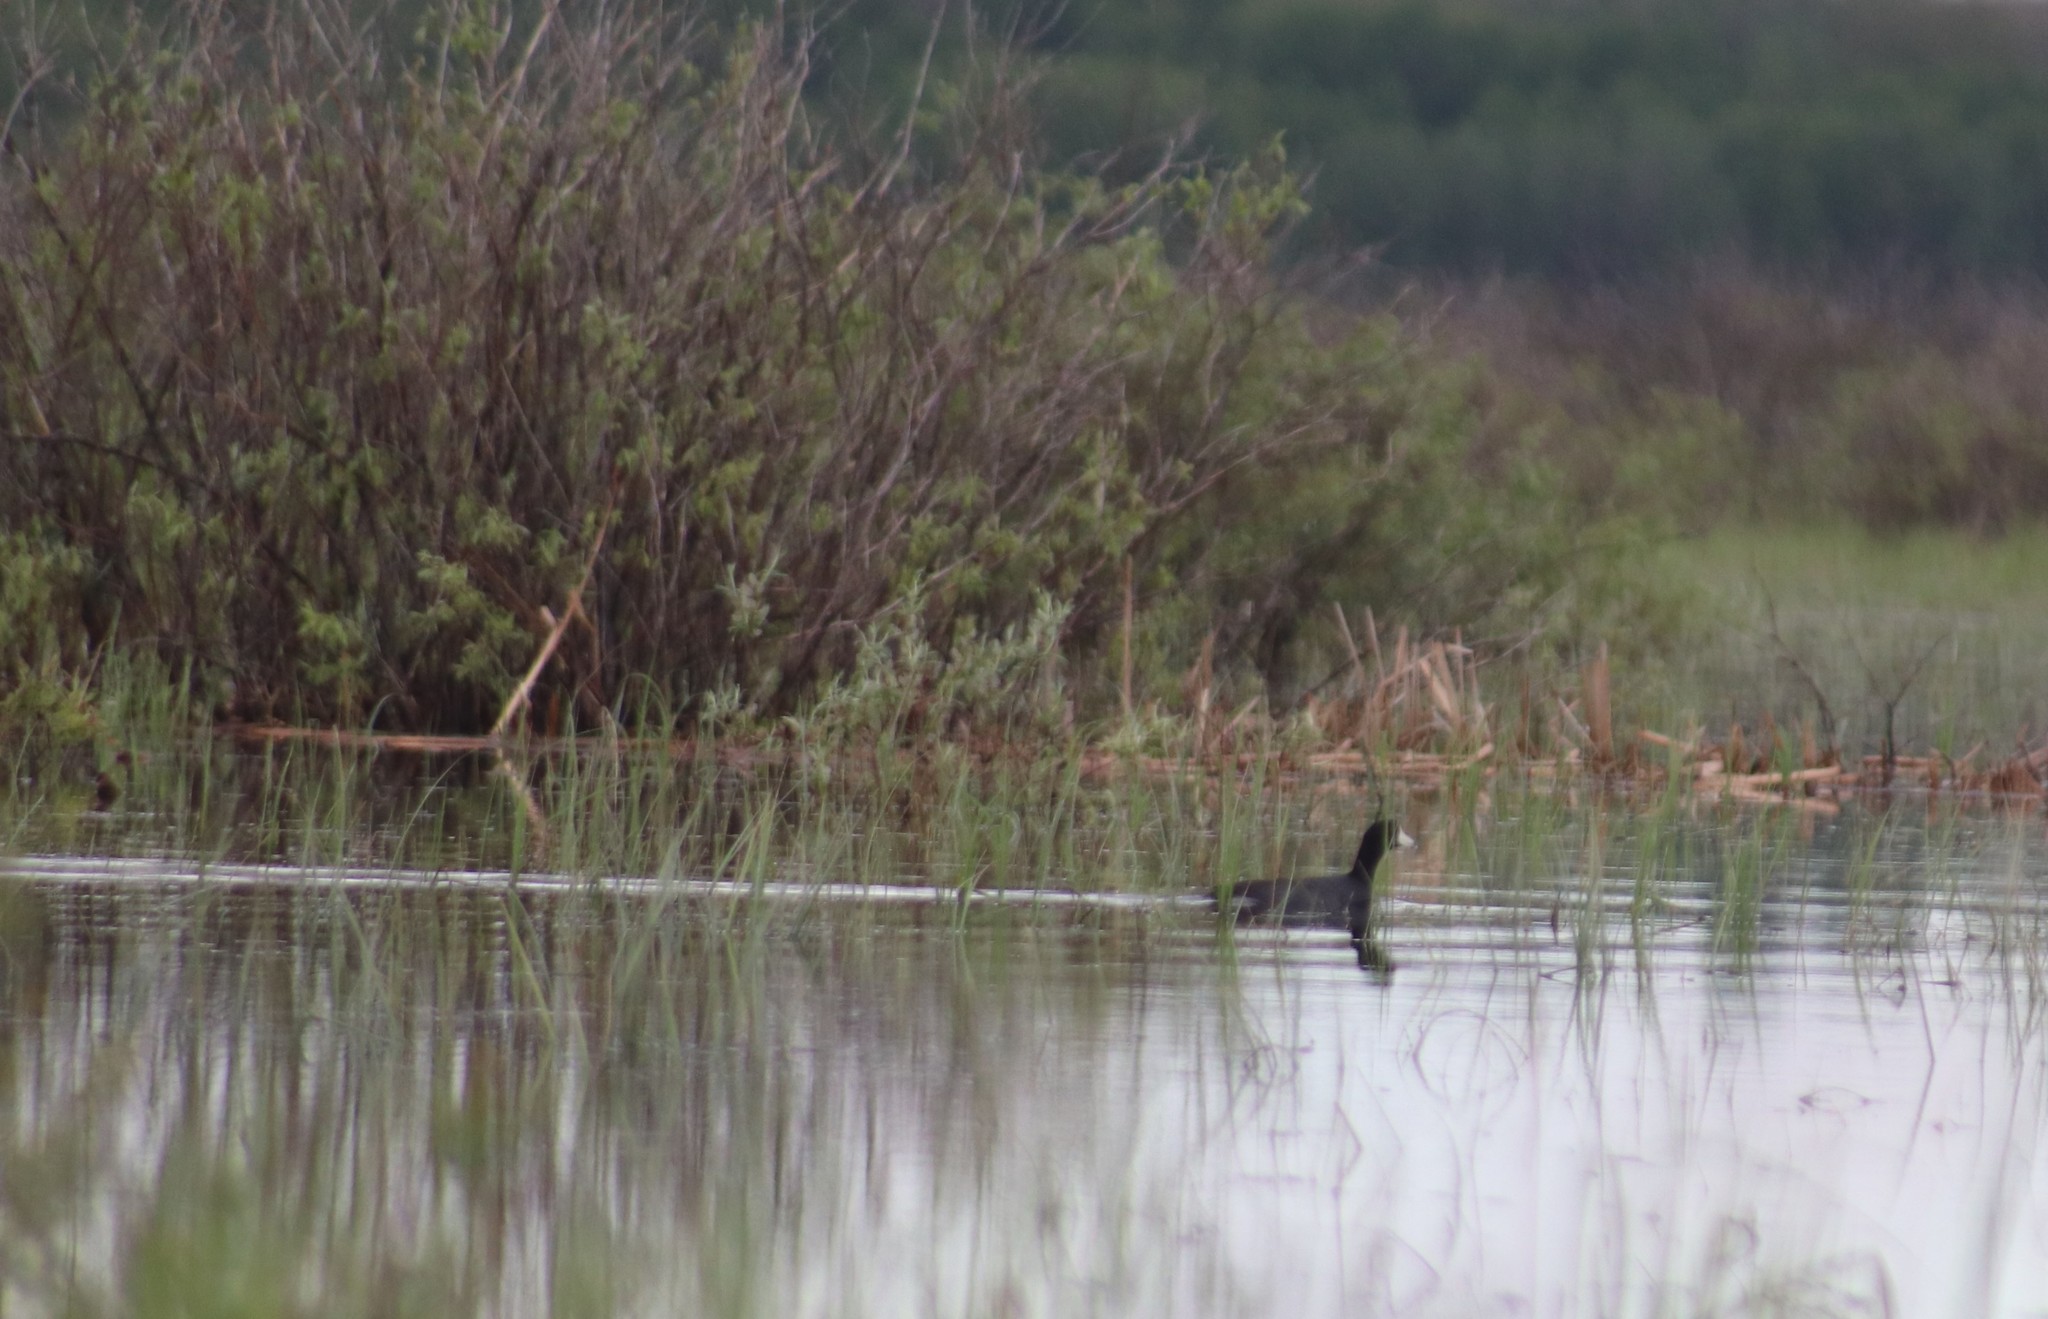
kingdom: Animalia
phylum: Chordata
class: Aves
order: Gruiformes
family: Rallidae
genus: Fulica
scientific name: Fulica americana
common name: American coot
